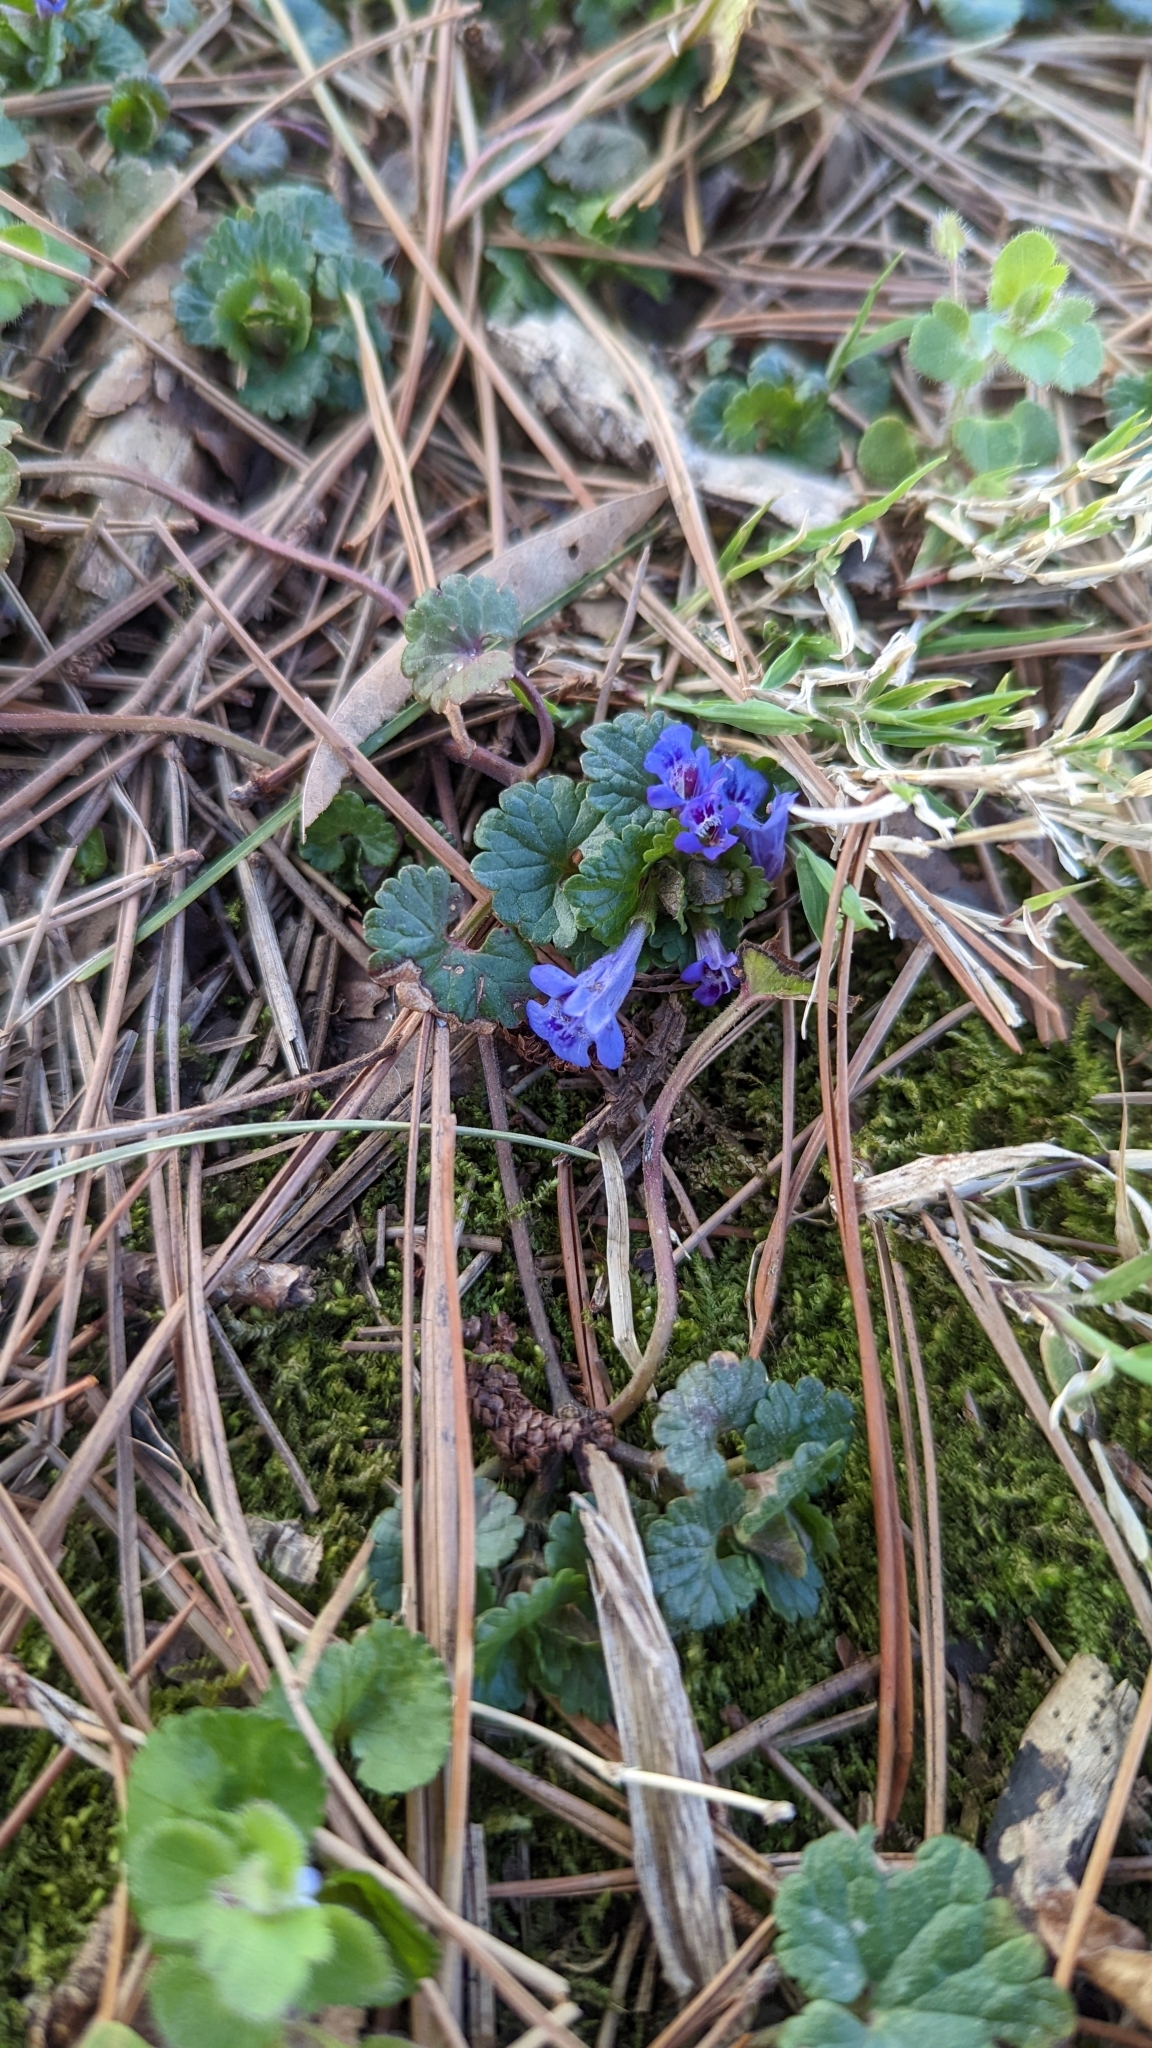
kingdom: Plantae
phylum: Tracheophyta
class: Magnoliopsida
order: Lamiales
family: Lamiaceae
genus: Glechoma
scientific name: Glechoma hederacea
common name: Ground ivy
